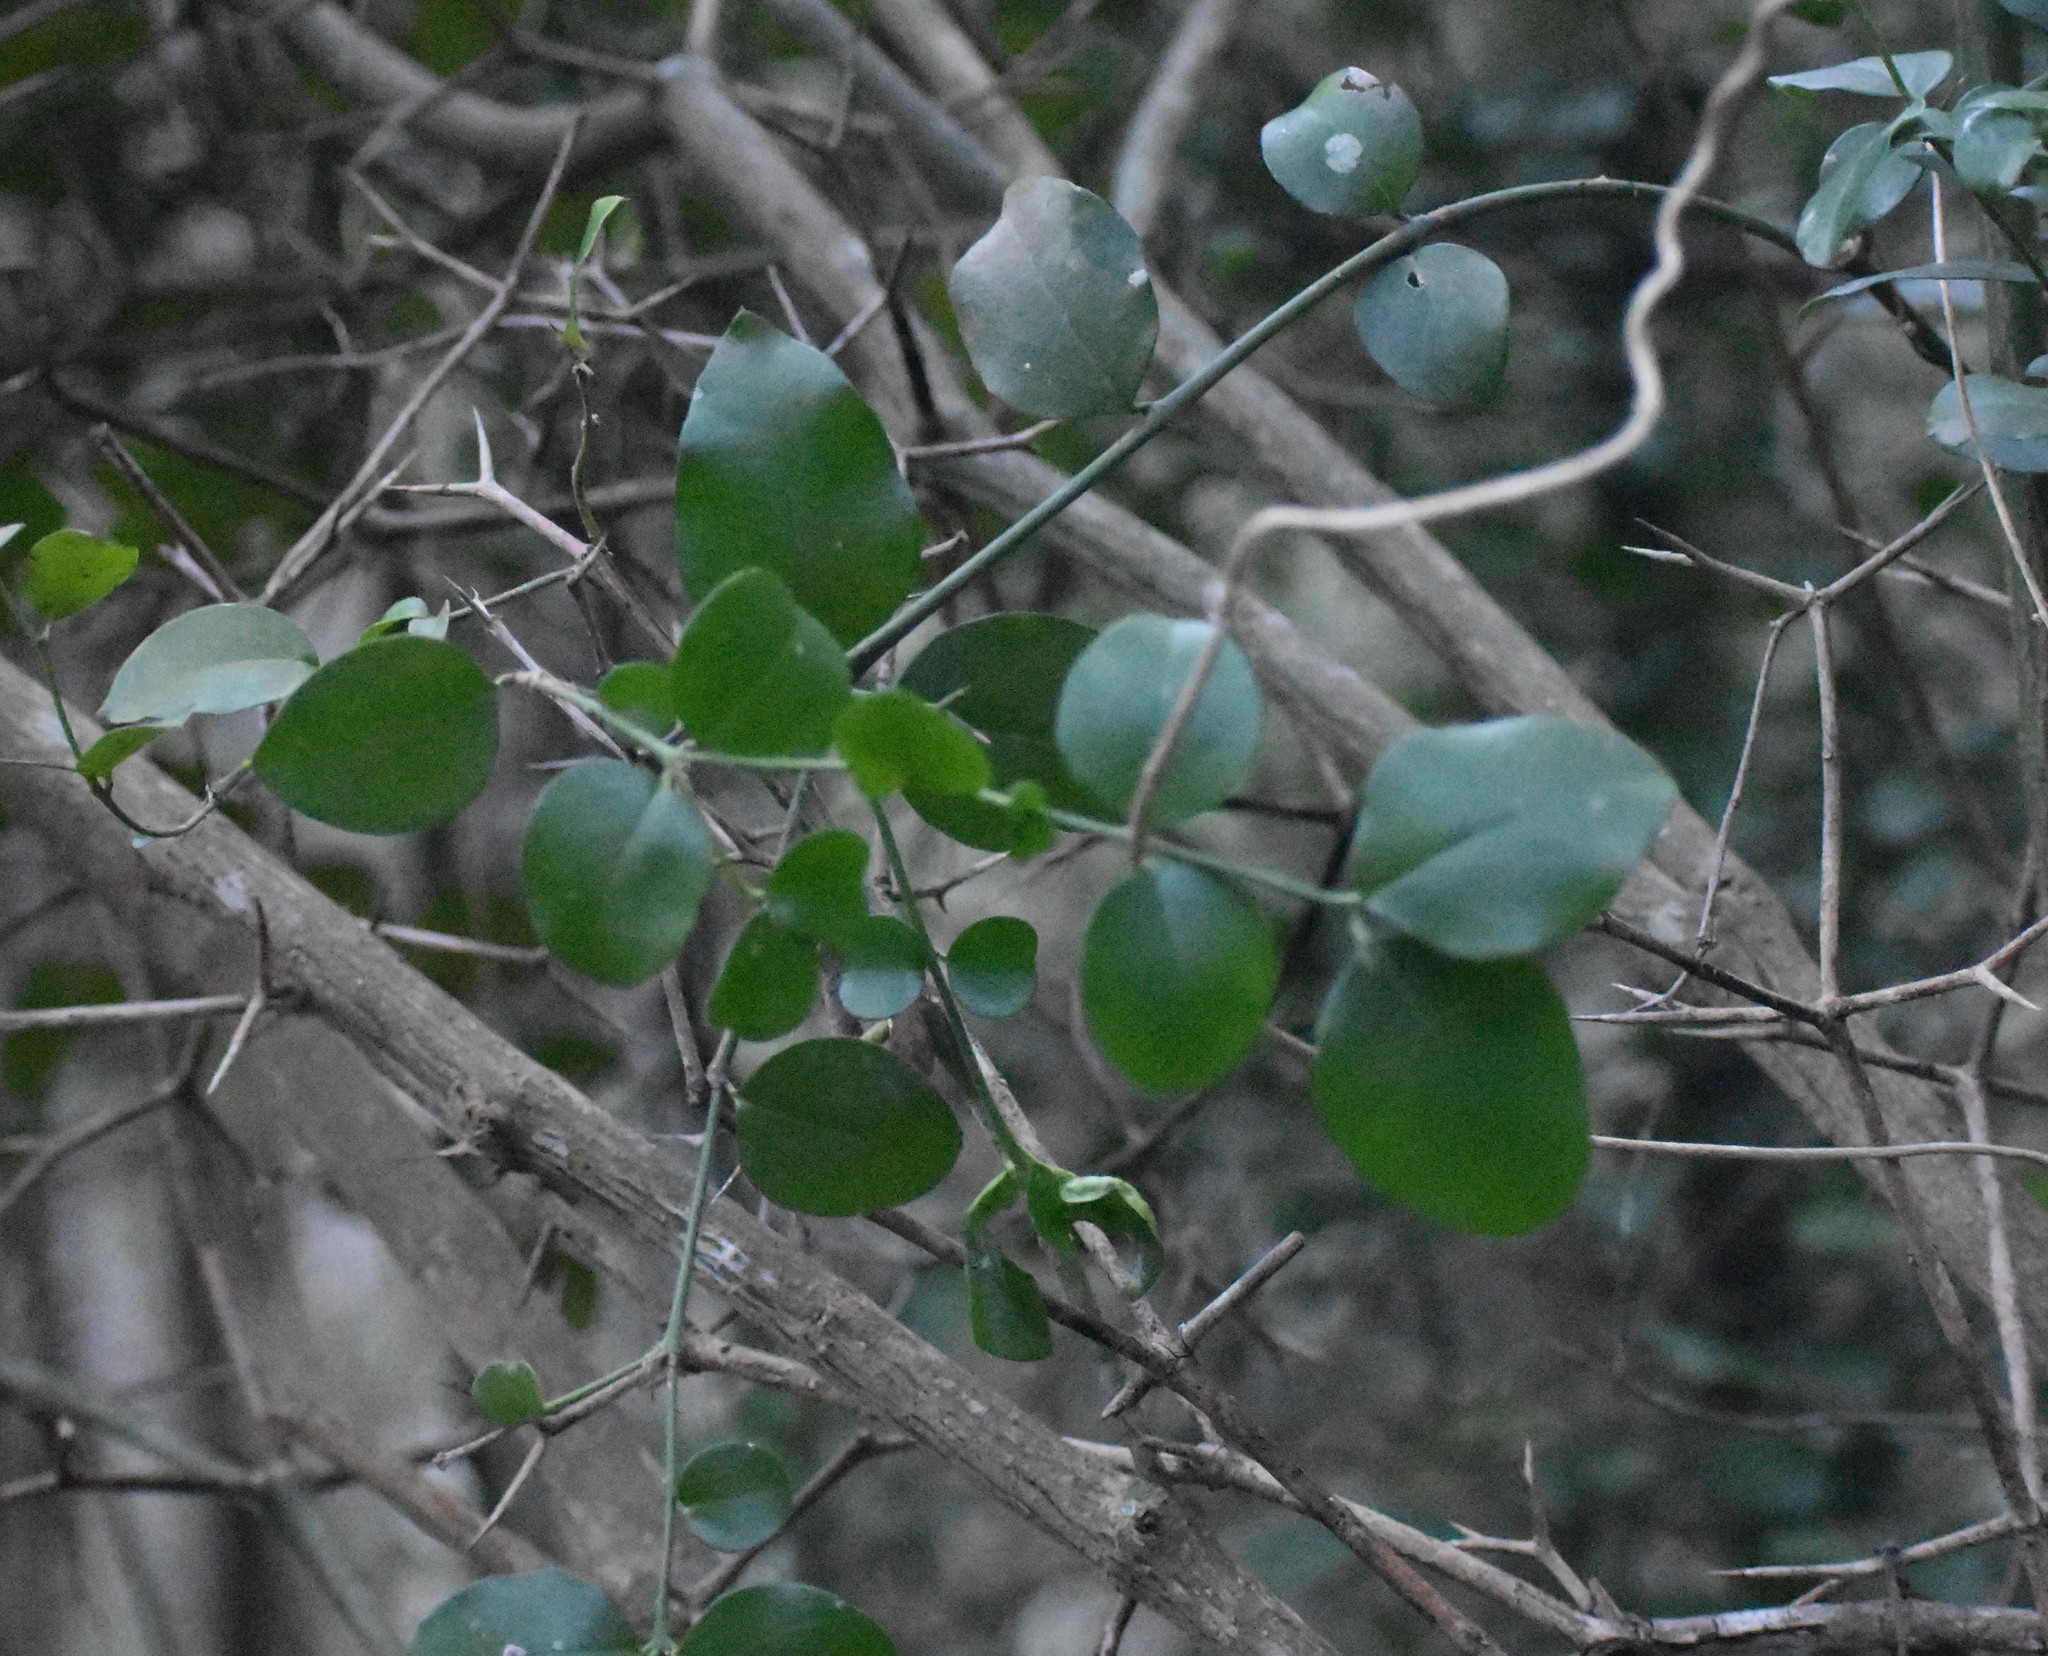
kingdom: Plantae
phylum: Tracheophyta
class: Magnoliopsida
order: Gentianales
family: Apocynaceae
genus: Carissa
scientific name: Carissa bispinosa
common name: Forest num-num
